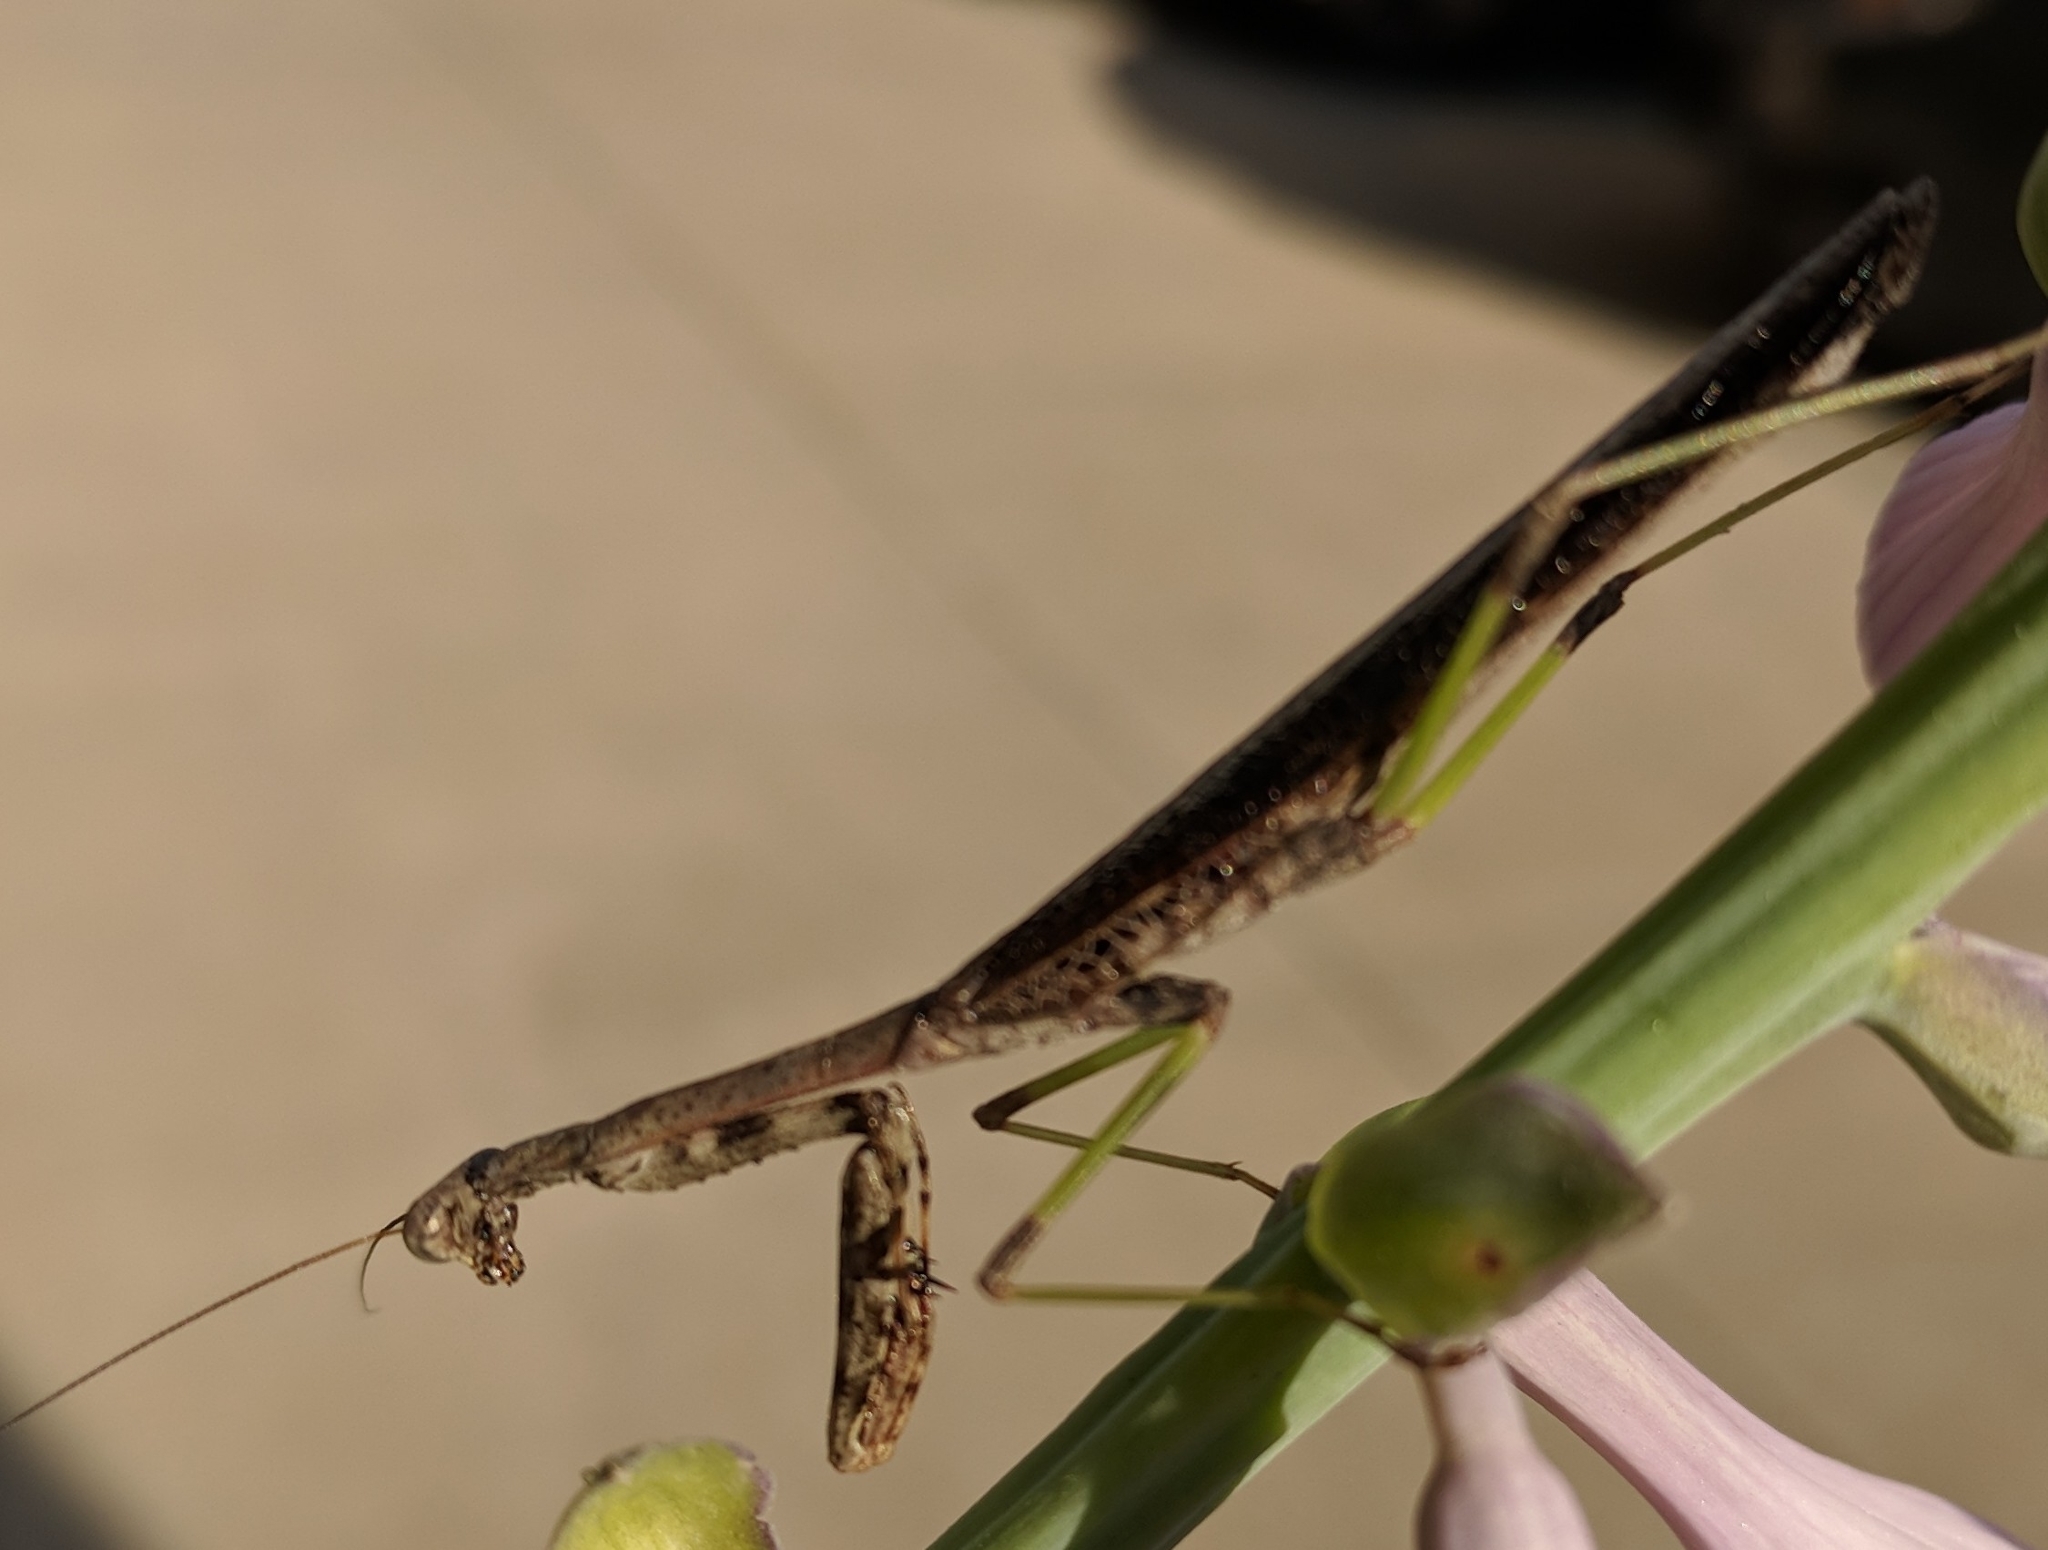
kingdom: Animalia
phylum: Arthropoda
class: Insecta
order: Mantodea
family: Mantidae
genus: Stagmomantis
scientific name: Stagmomantis carolina
